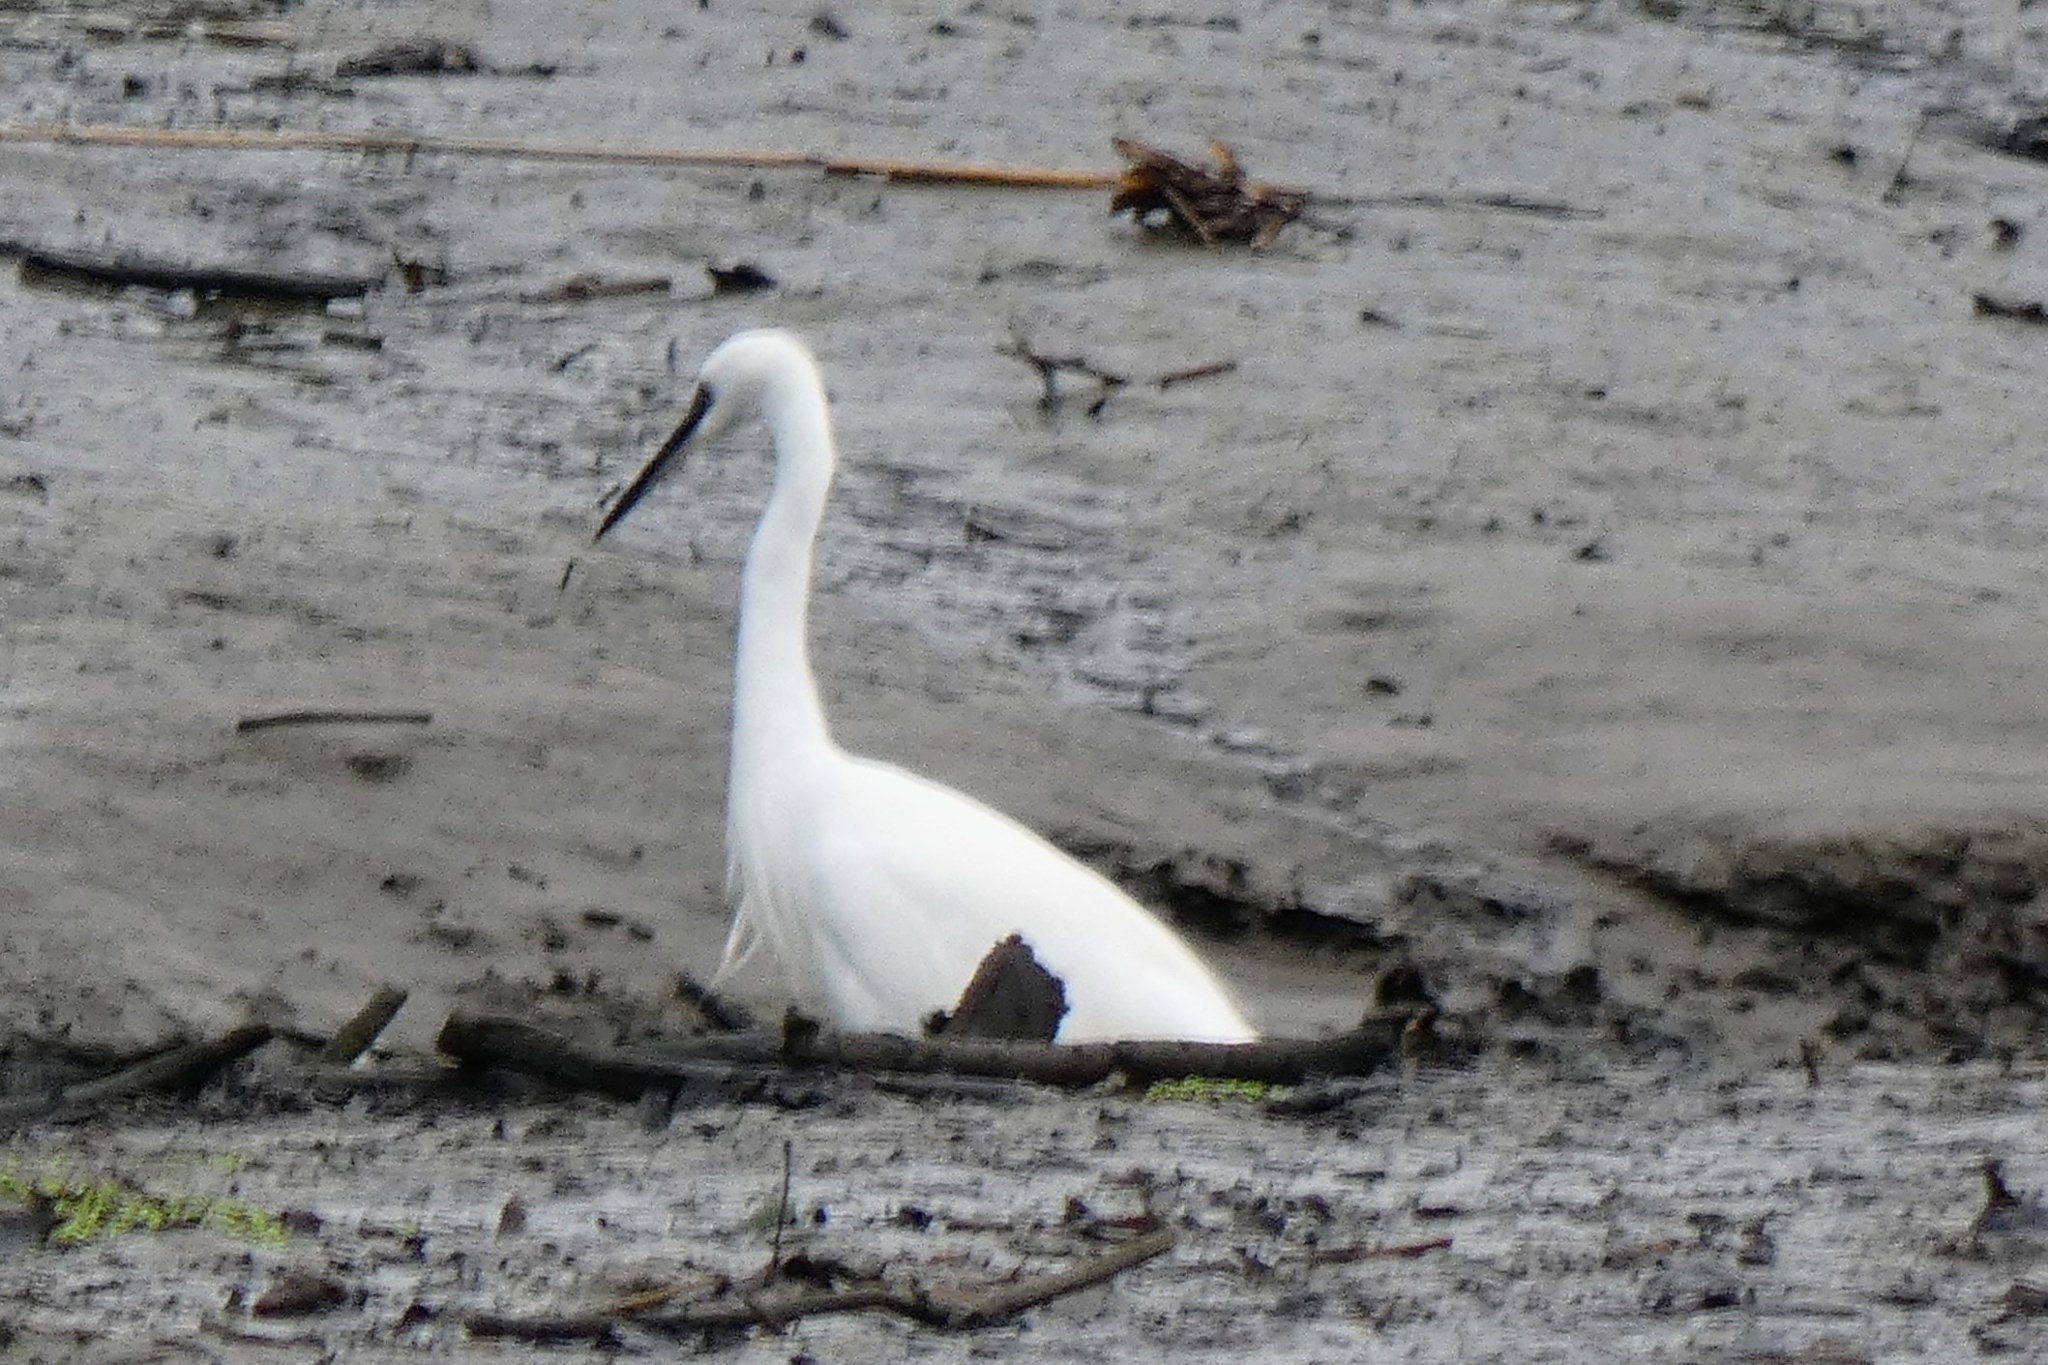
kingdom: Animalia
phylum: Chordata
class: Aves
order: Pelecaniformes
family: Ardeidae
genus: Egretta
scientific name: Egretta garzetta
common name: Little egret
